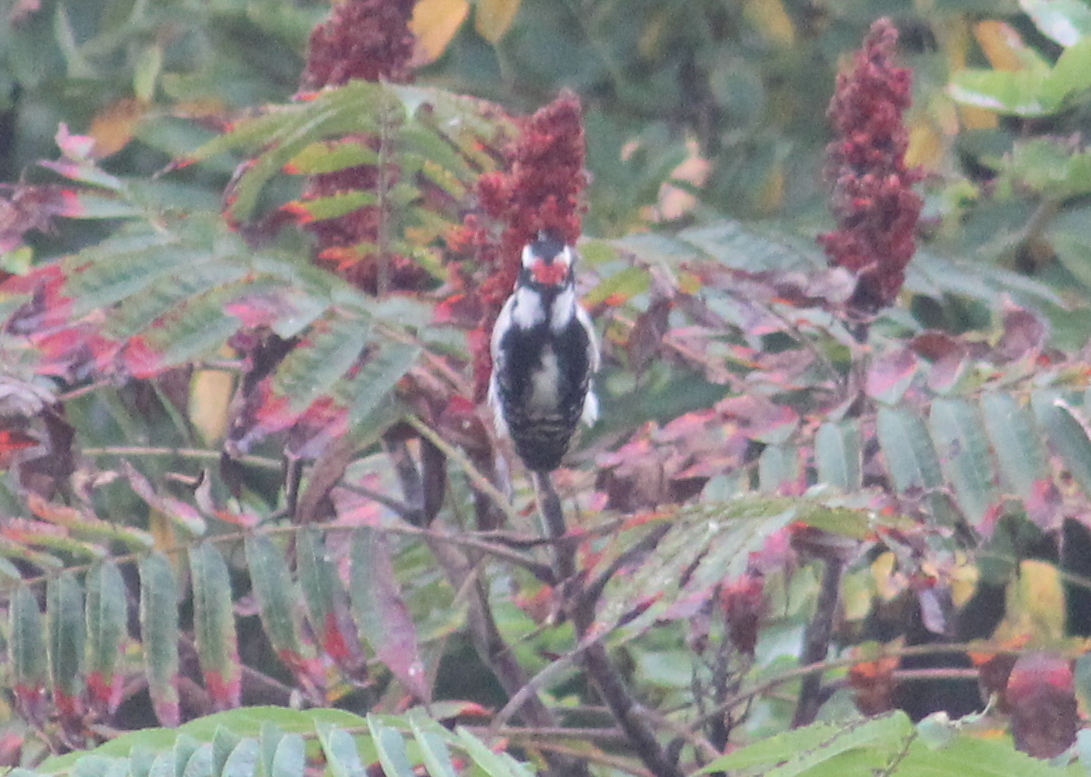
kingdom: Animalia
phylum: Chordata
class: Aves
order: Piciformes
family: Picidae
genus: Dryobates
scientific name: Dryobates pubescens
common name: Downy woodpecker
